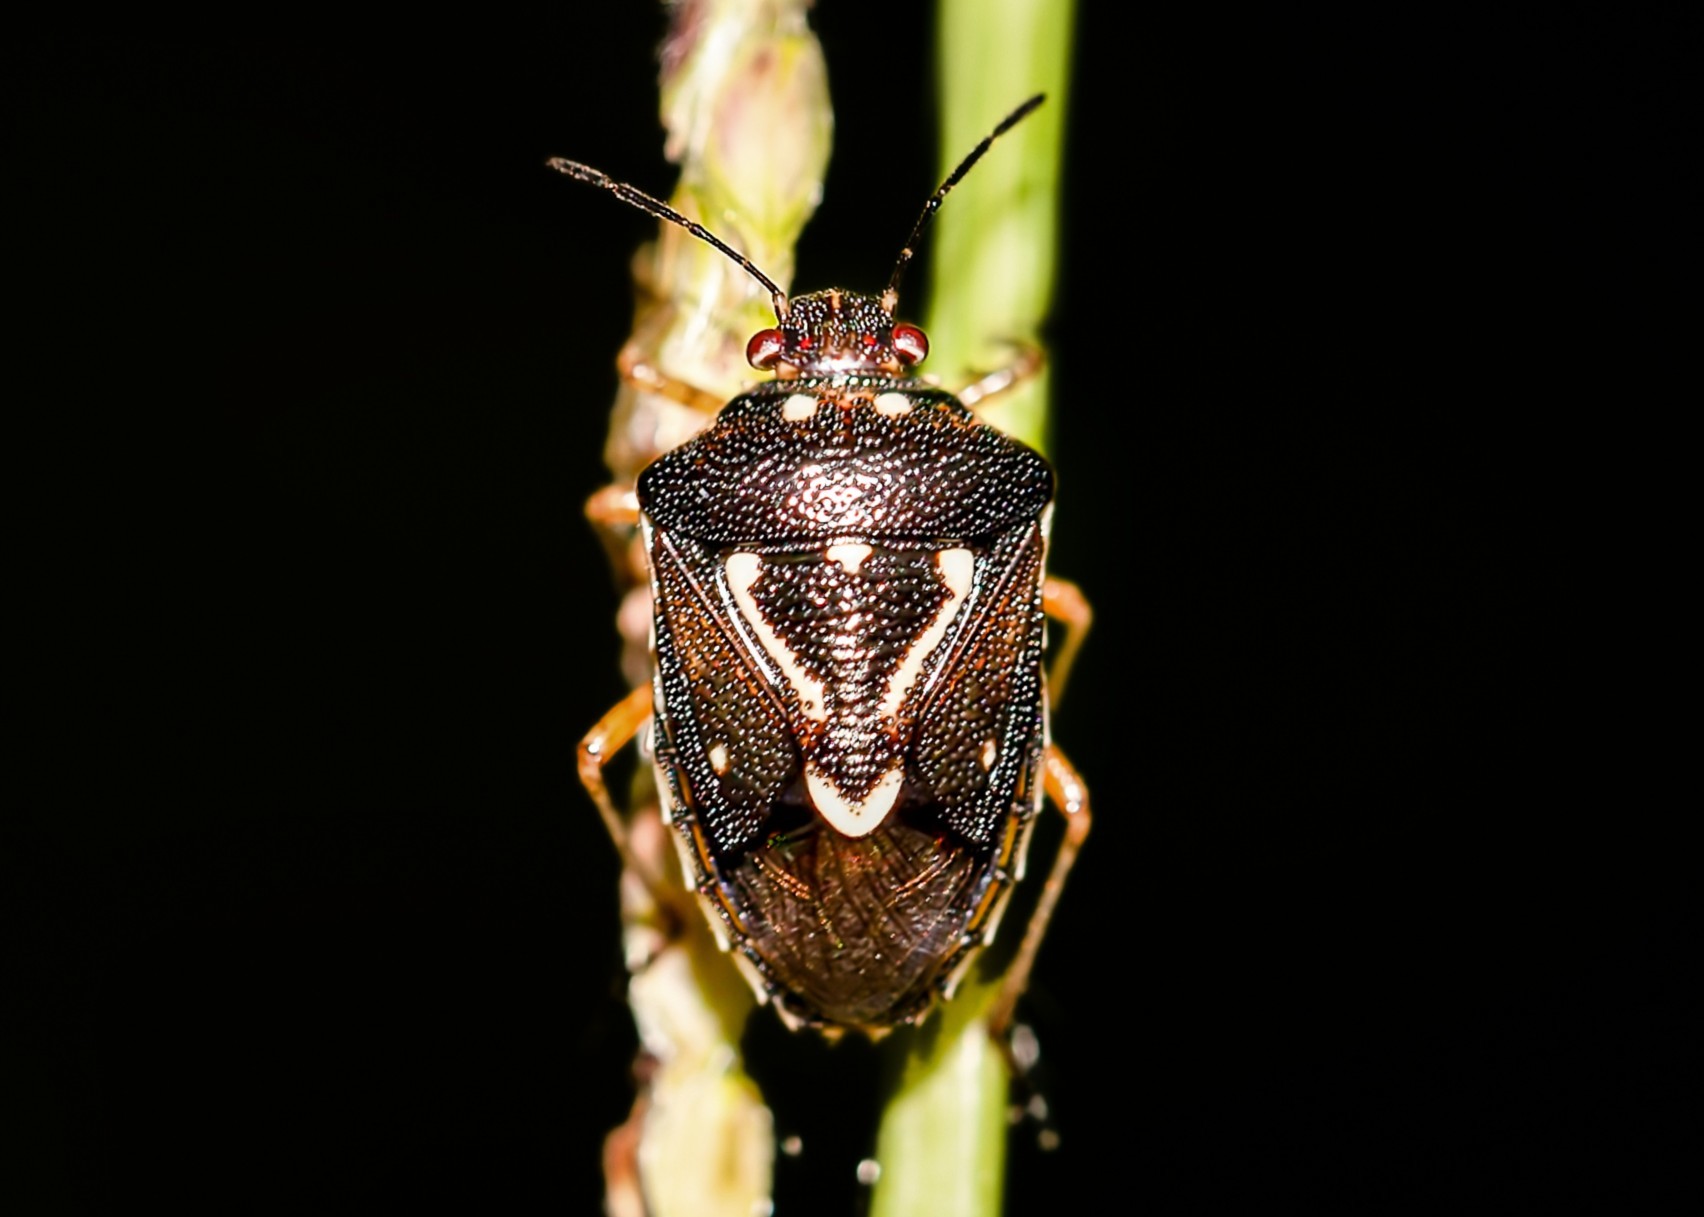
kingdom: Animalia
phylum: Arthropoda
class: Insecta
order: Hemiptera
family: Pentatomidae
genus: Mormidea
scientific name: Mormidea pama
